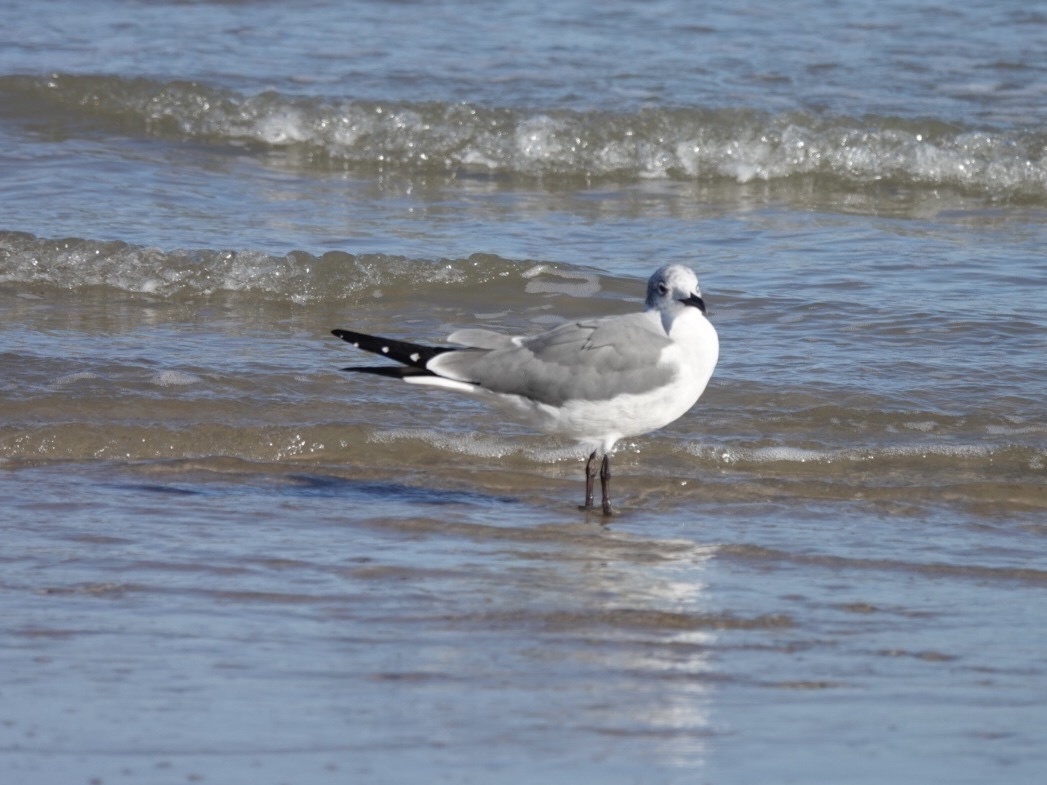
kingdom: Animalia
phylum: Chordata
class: Aves
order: Charadriiformes
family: Laridae
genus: Leucophaeus
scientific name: Leucophaeus atricilla
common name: Laughing gull
